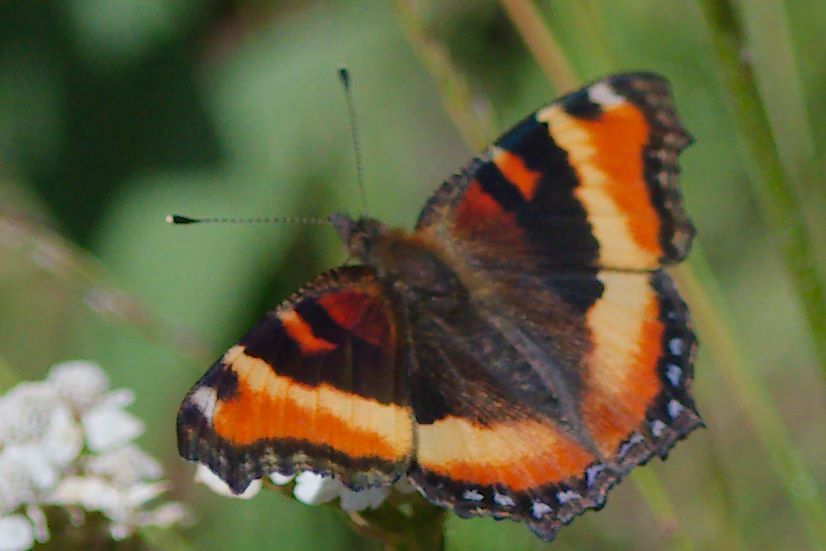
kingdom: Animalia
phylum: Arthropoda
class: Insecta
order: Lepidoptera
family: Nymphalidae
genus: Aglais
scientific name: Aglais milberti
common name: Milbert's tortoiseshell
